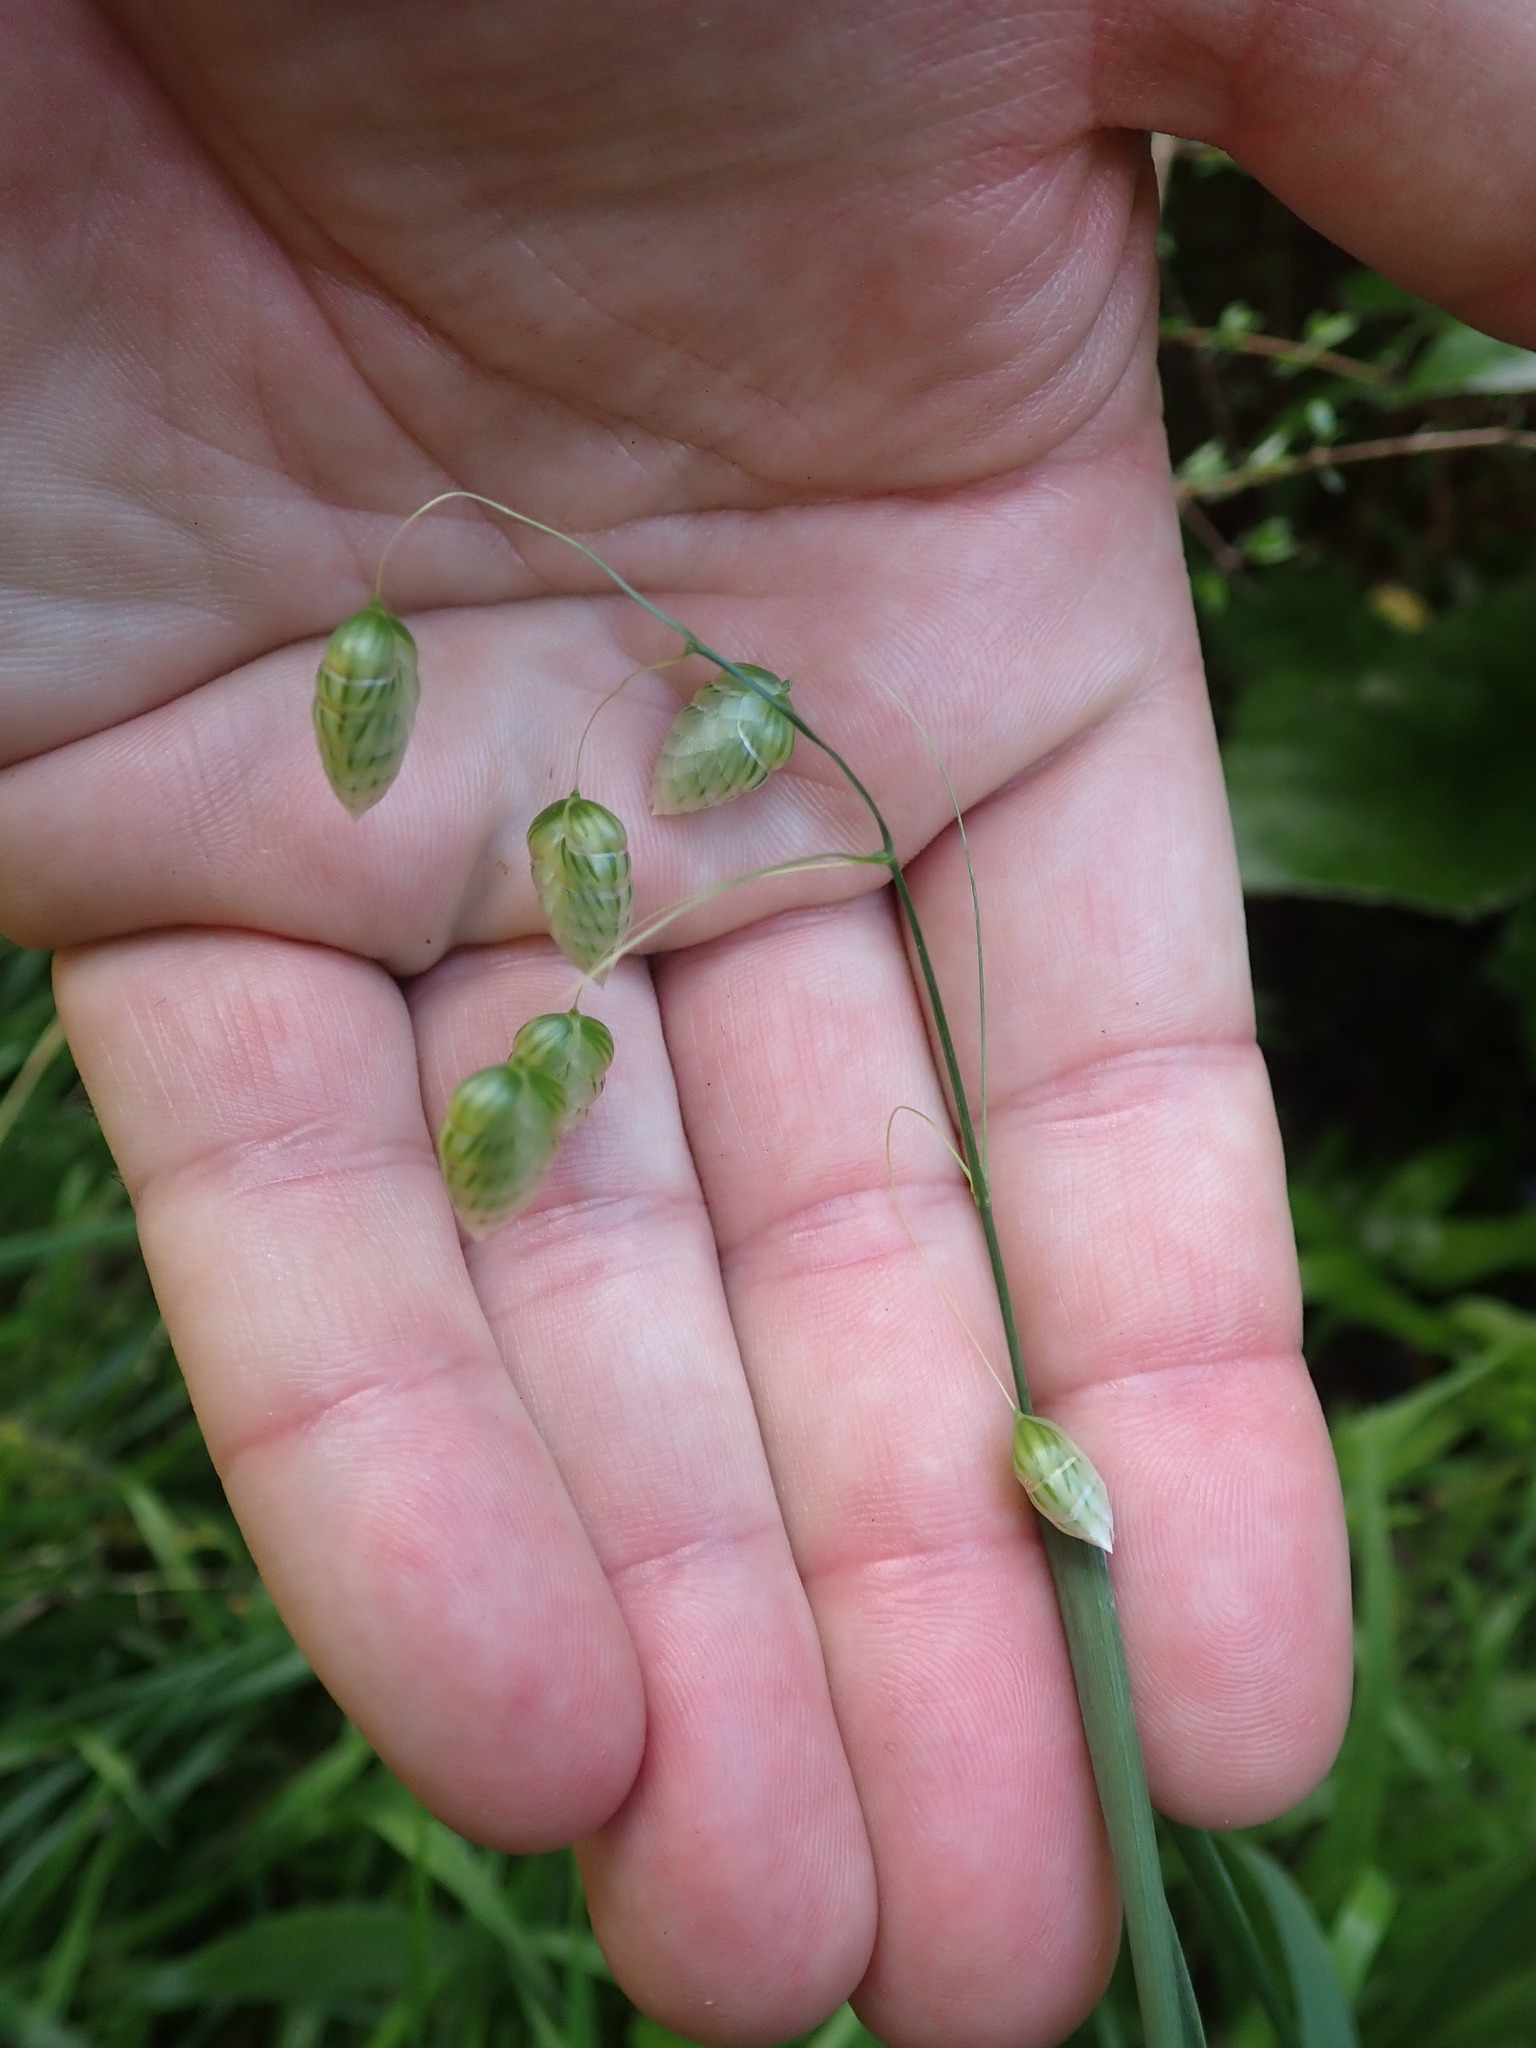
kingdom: Plantae
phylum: Tracheophyta
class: Liliopsida
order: Poales
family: Poaceae
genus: Briza
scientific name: Briza maxima
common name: Big quakinggrass
